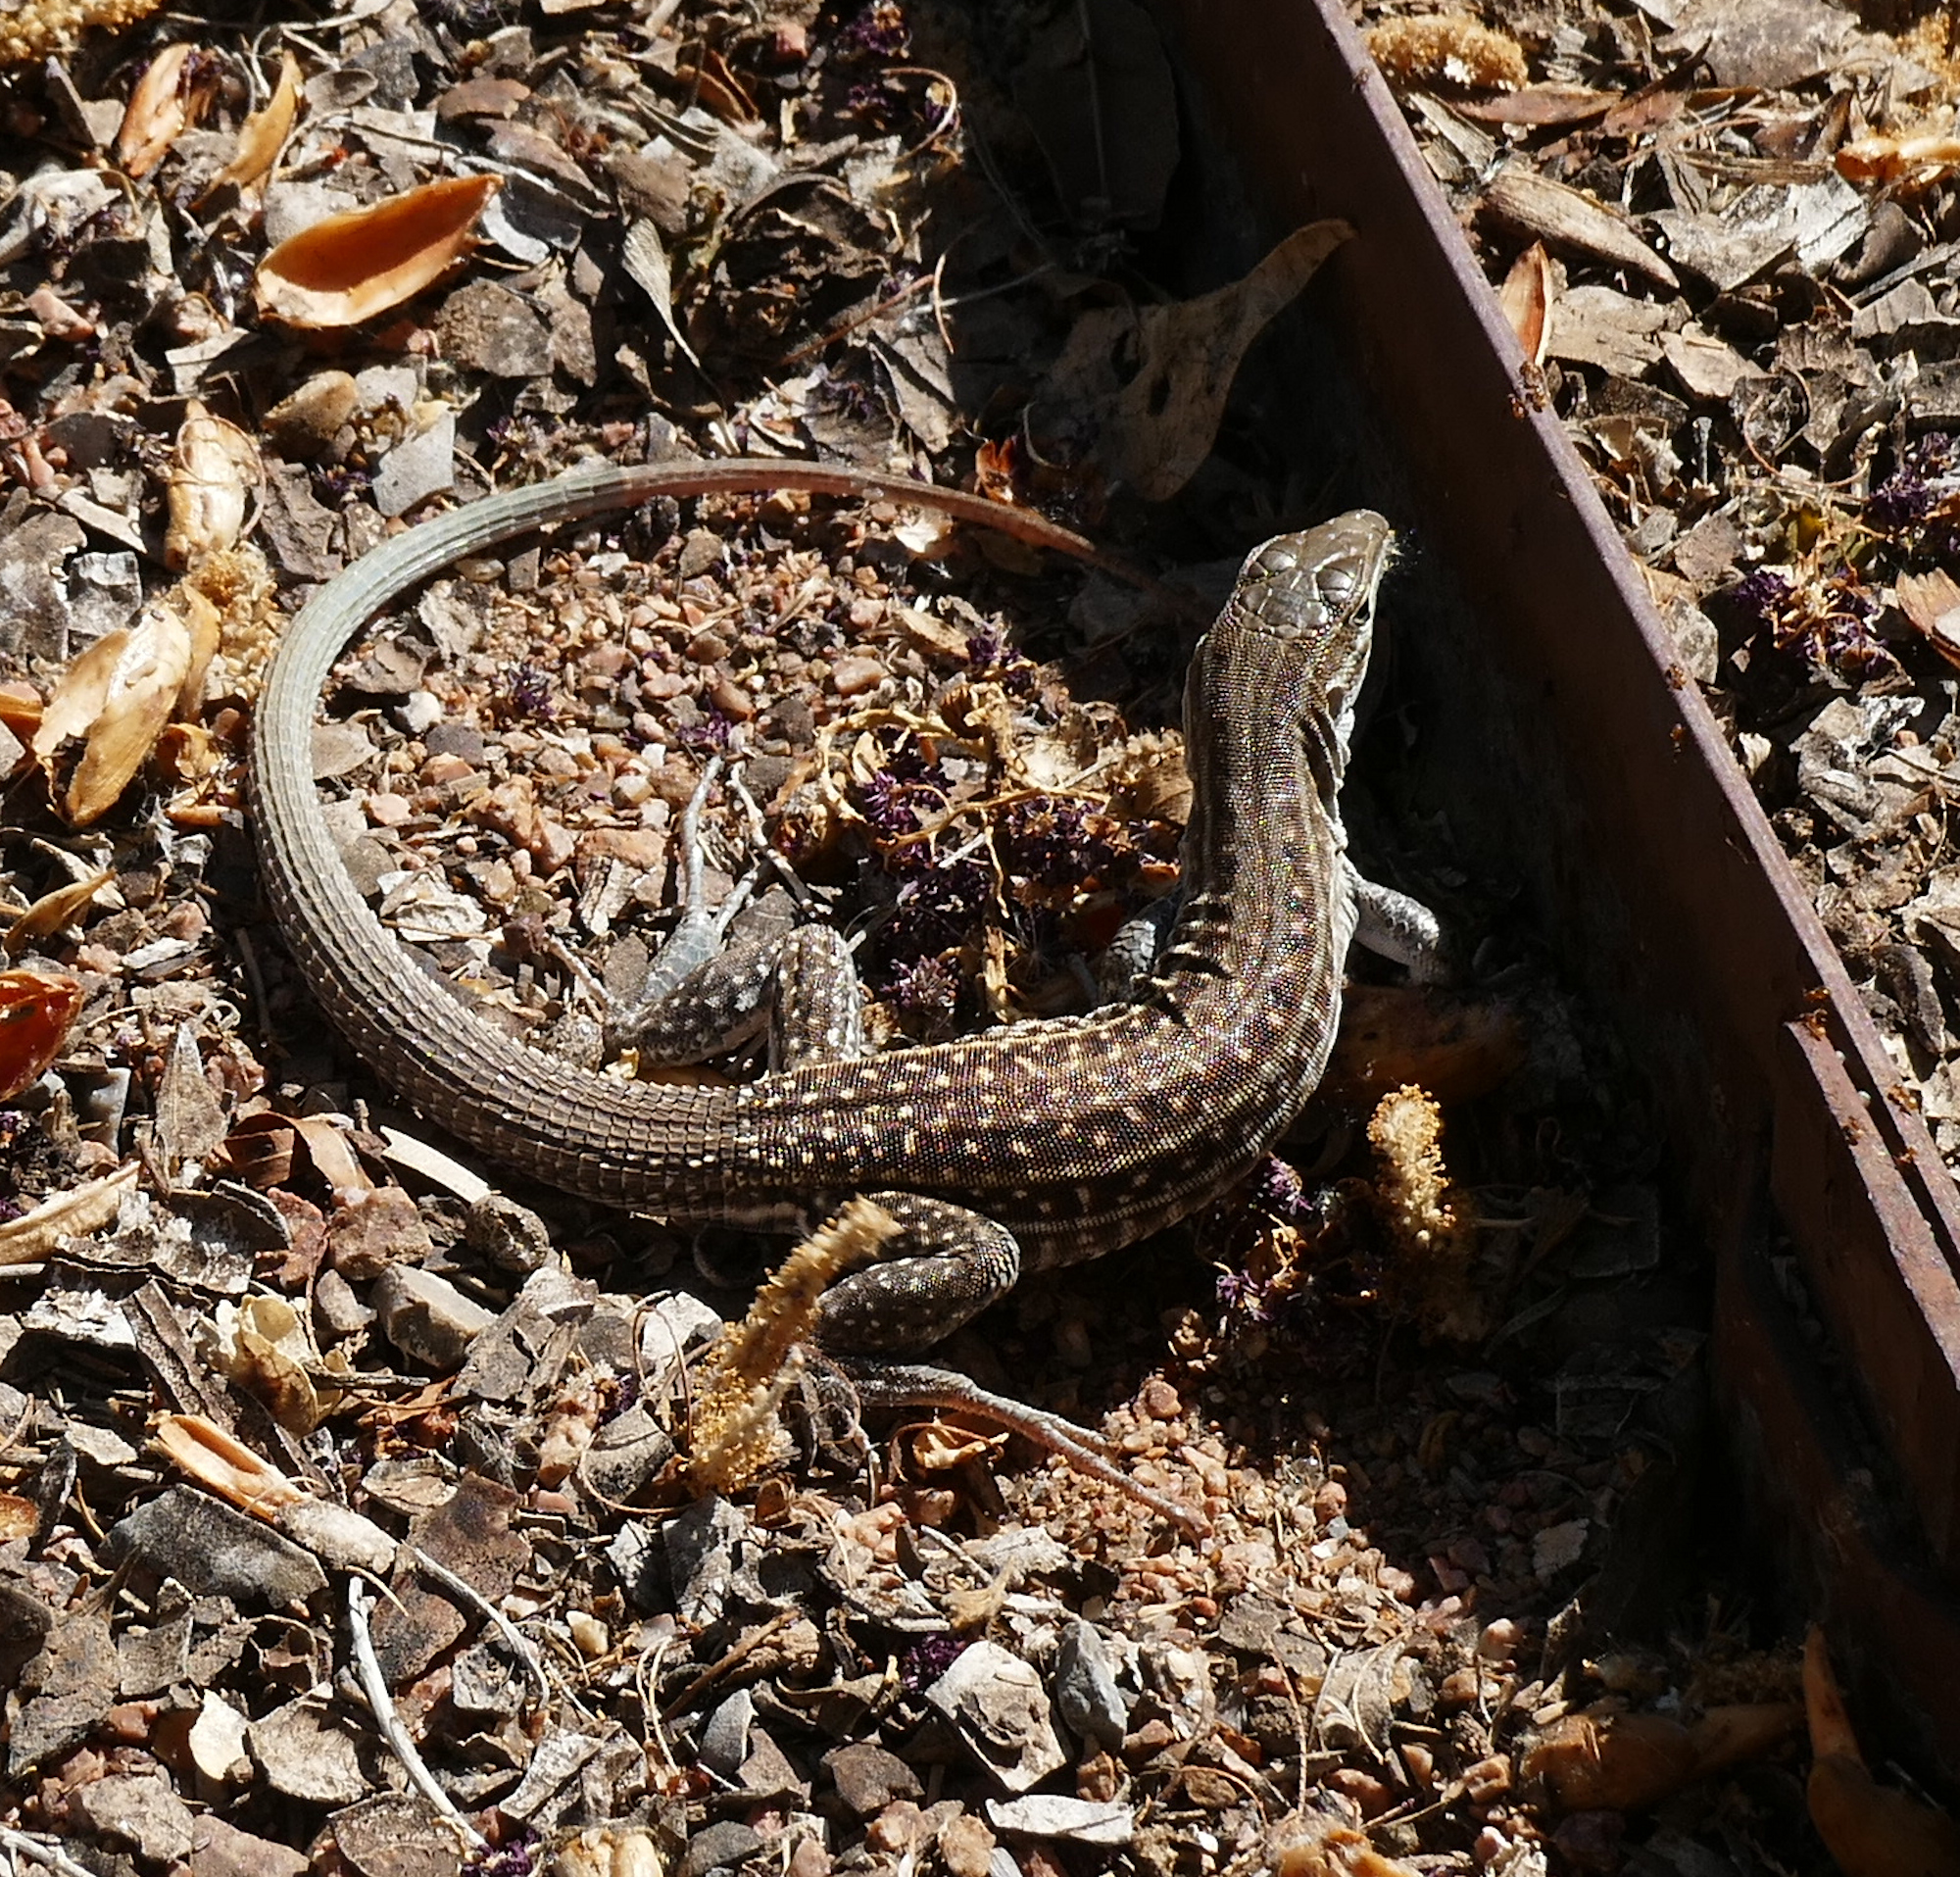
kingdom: Animalia
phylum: Chordata
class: Squamata
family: Teiidae
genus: Aspidoscelis
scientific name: Aspidoscelis exsanguis
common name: Chihuahuan spotted whiptail
